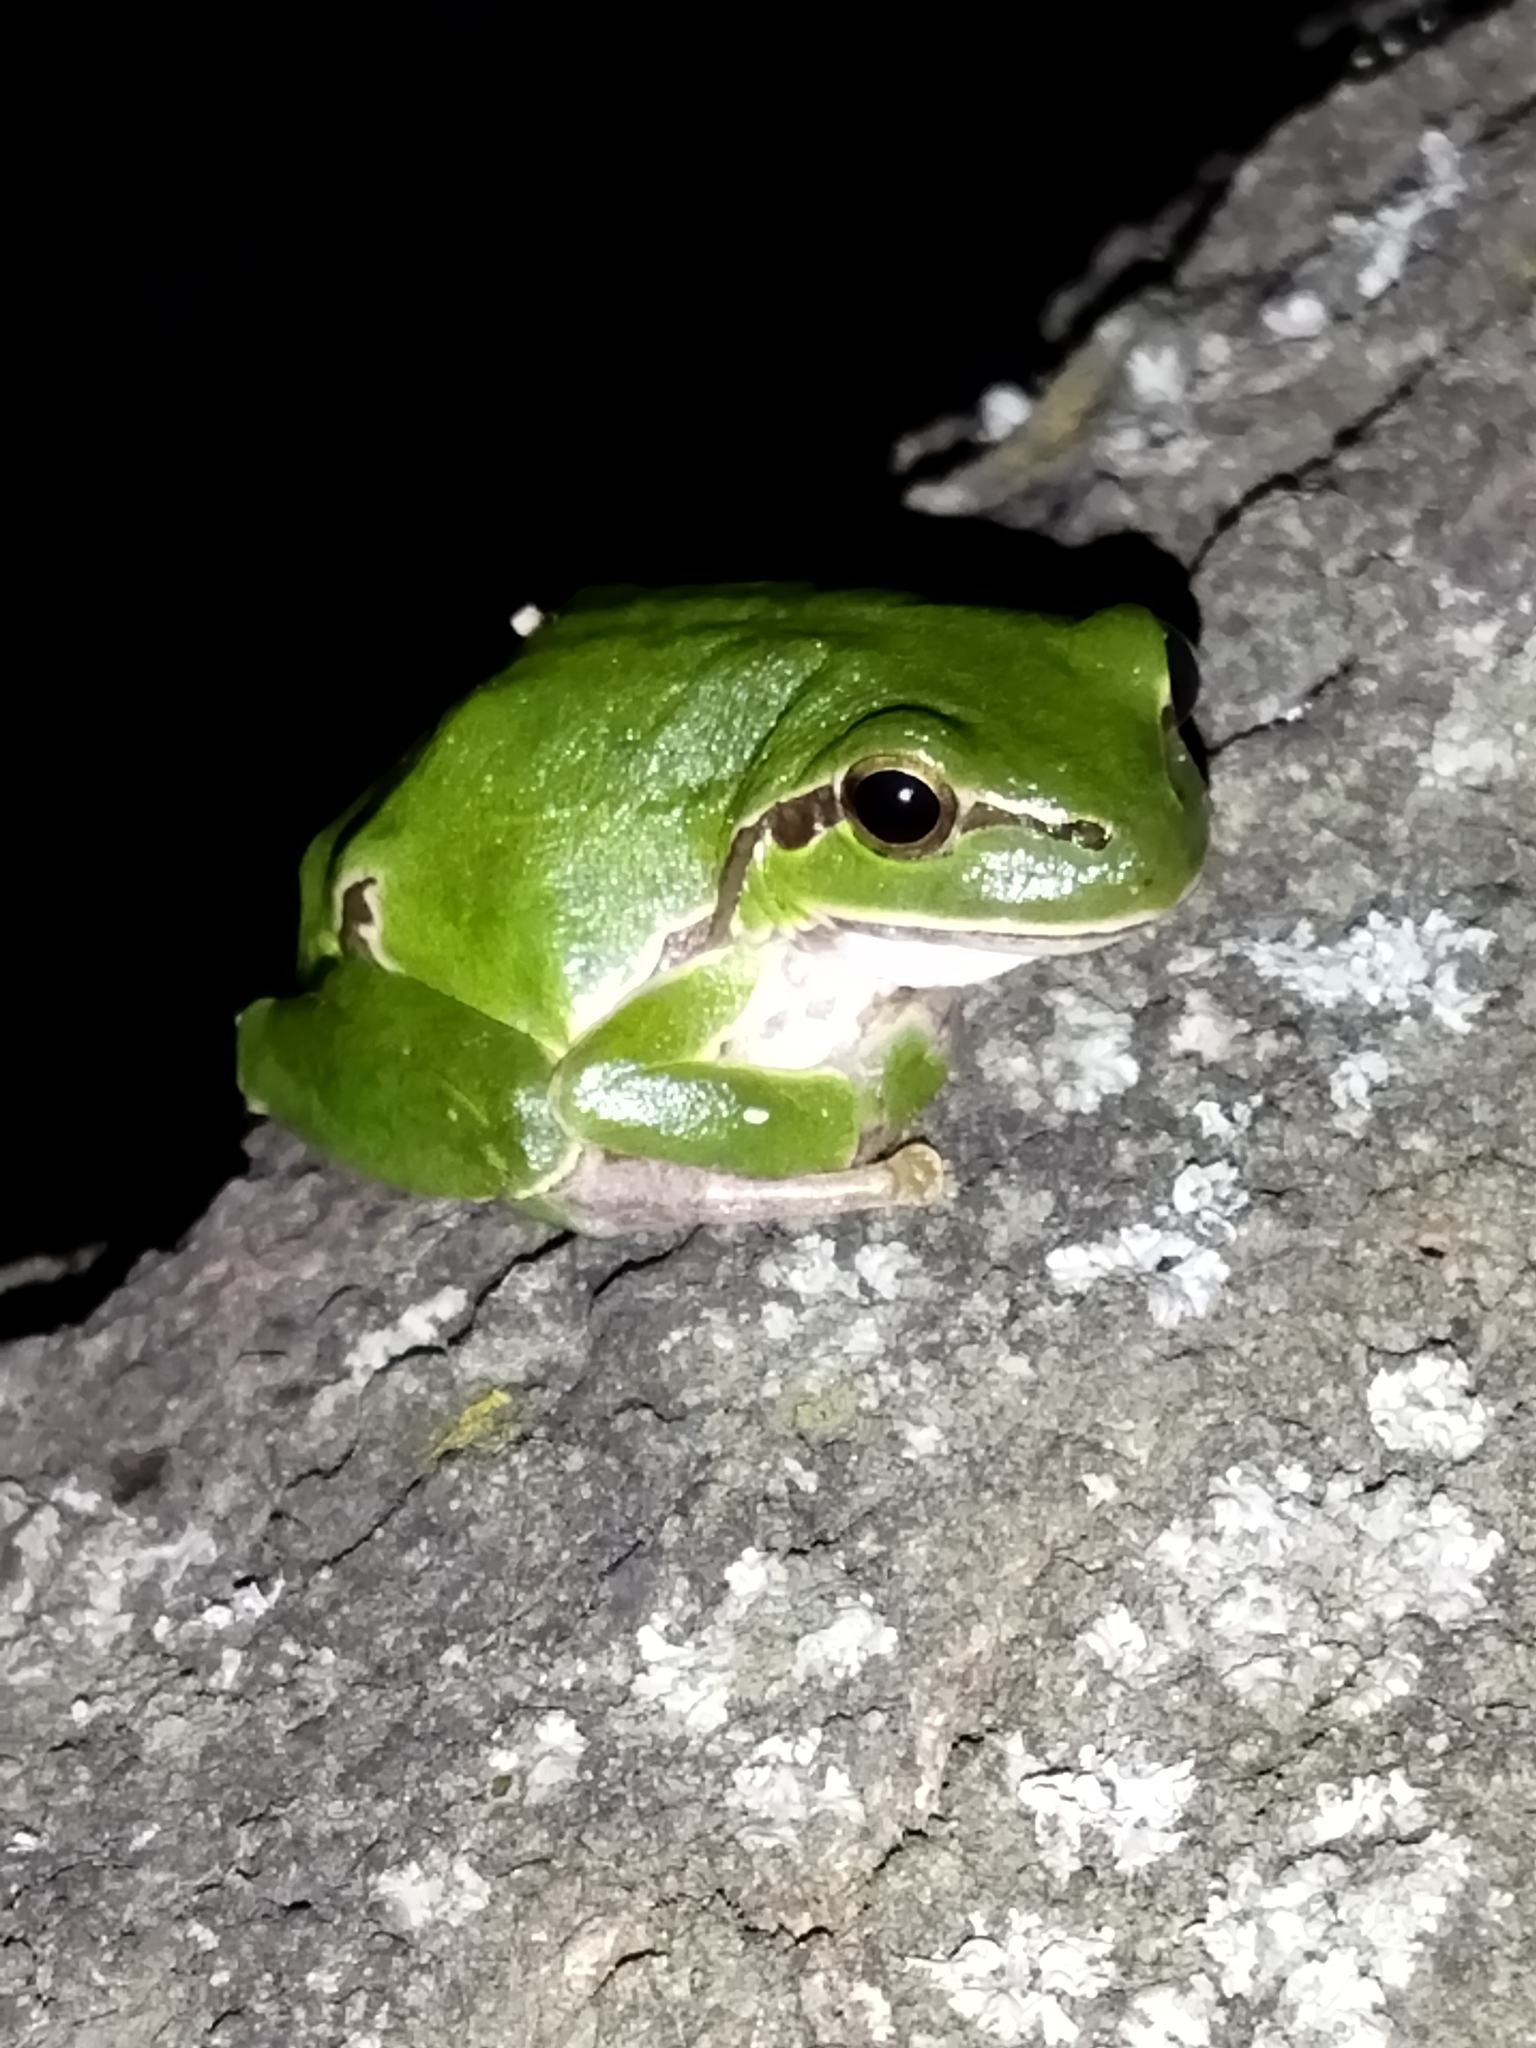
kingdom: Animalia
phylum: Chordata
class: Amphibia
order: Anura
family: Hylidae
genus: Hyla
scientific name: Hyla orientalis
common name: Caucasian treefrog
